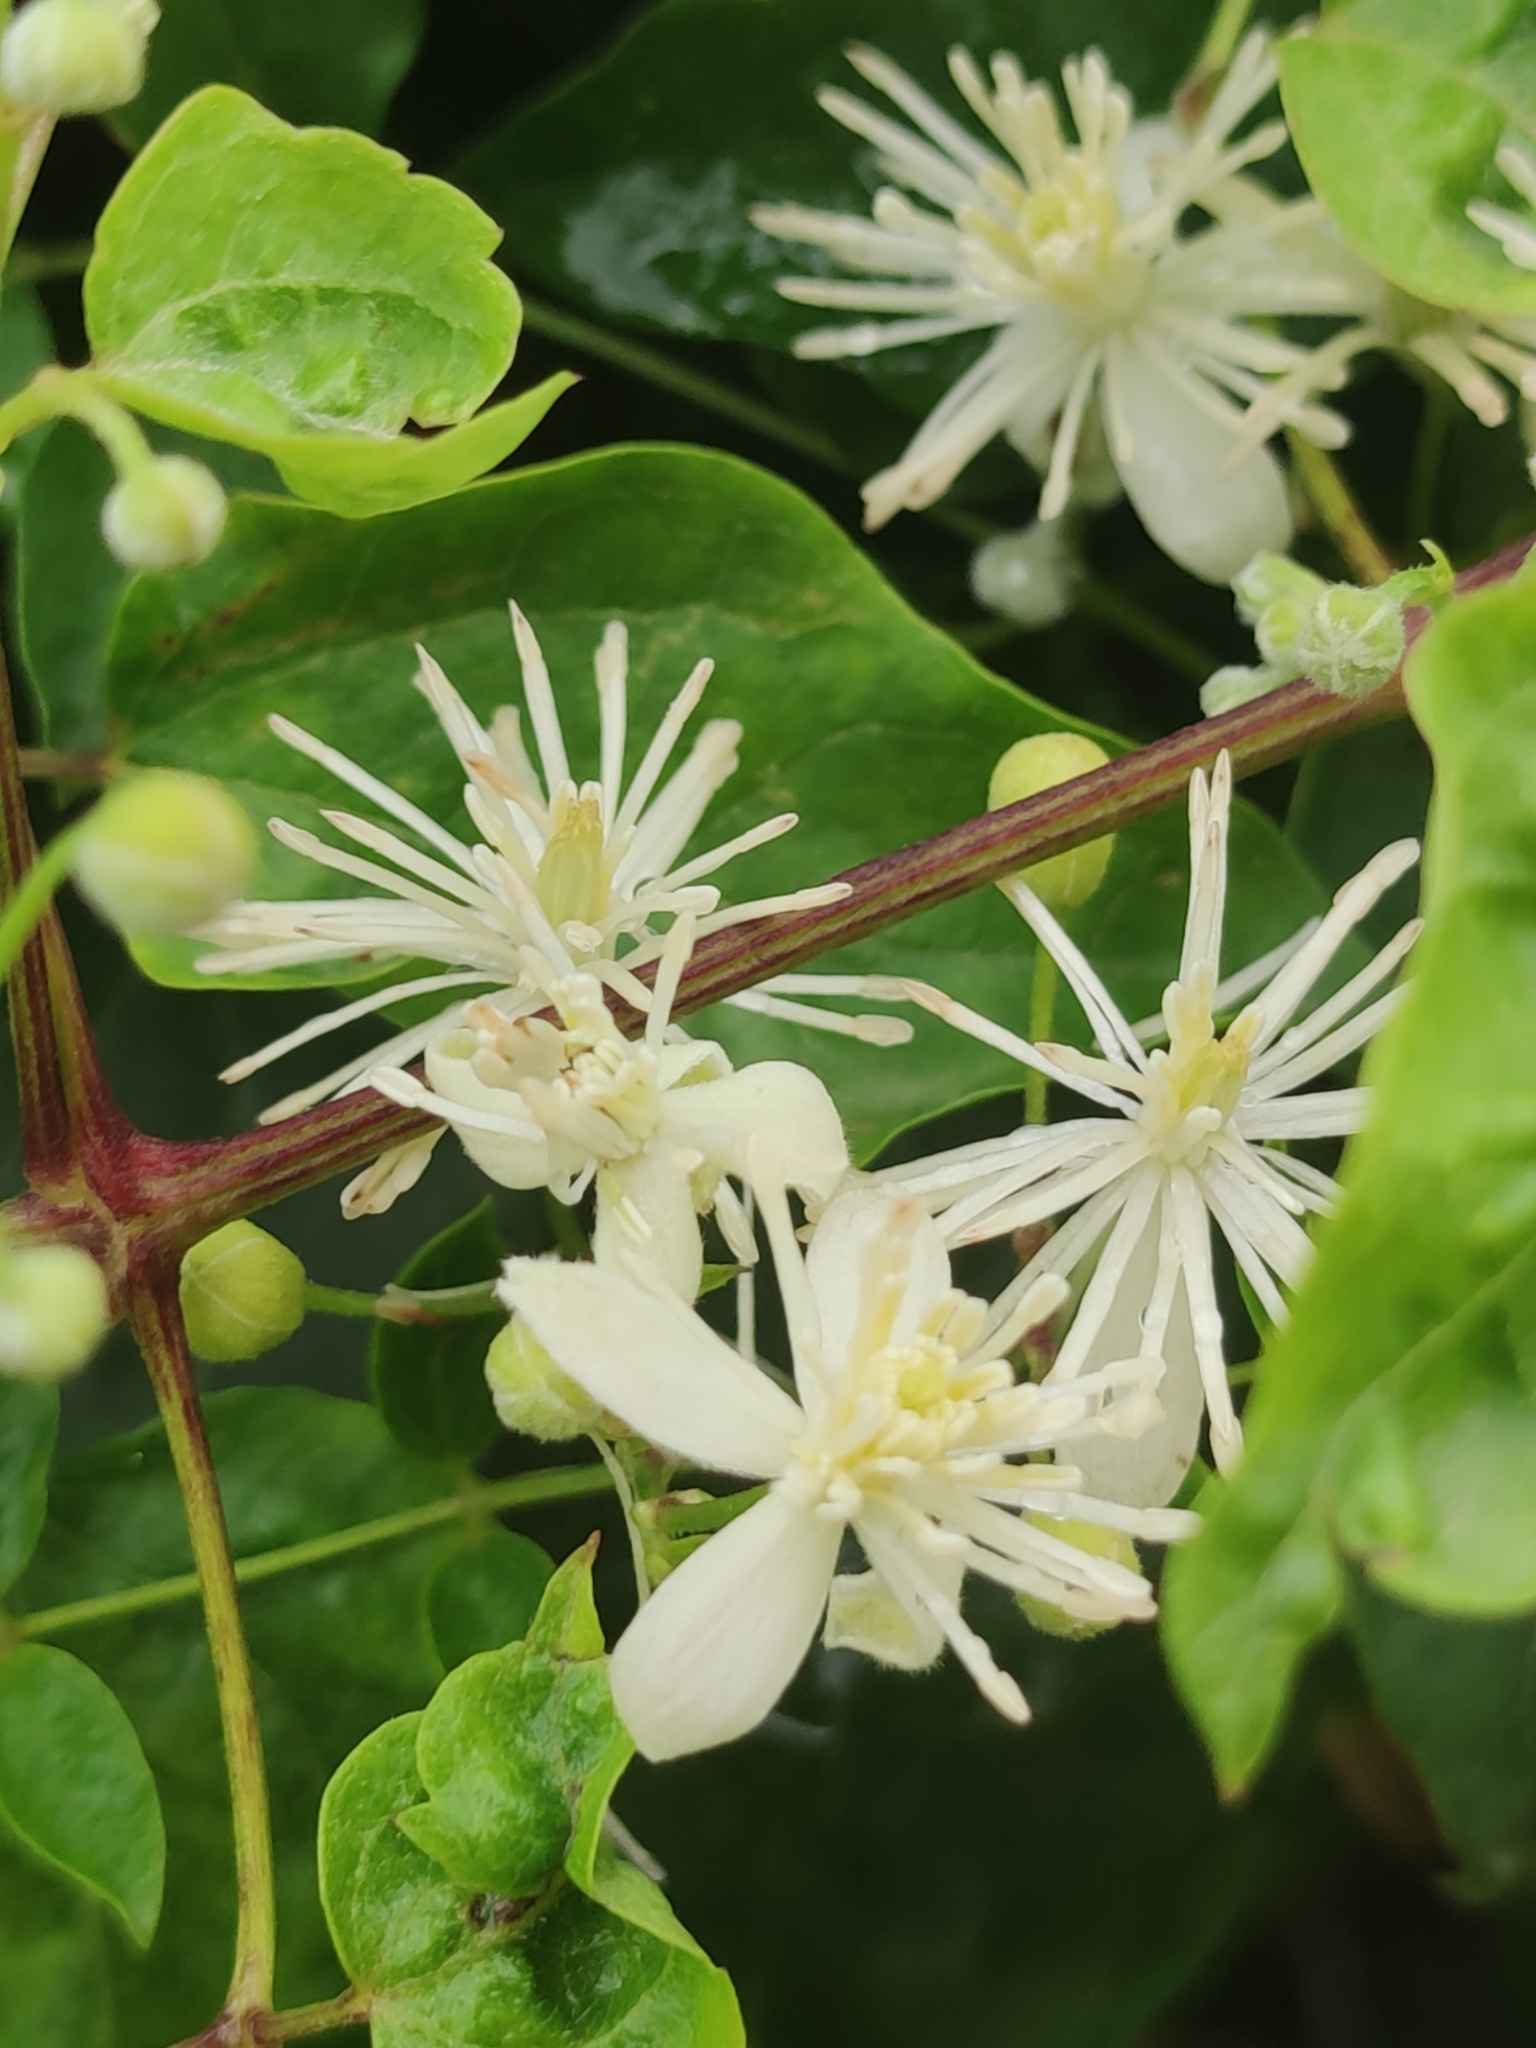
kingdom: Plantae
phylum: Tracheophyta
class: Magnoliopsida
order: Ranunculales
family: Ranunculaceae
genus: Clematis
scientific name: Clematis vitalba
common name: Evergreen clematis
